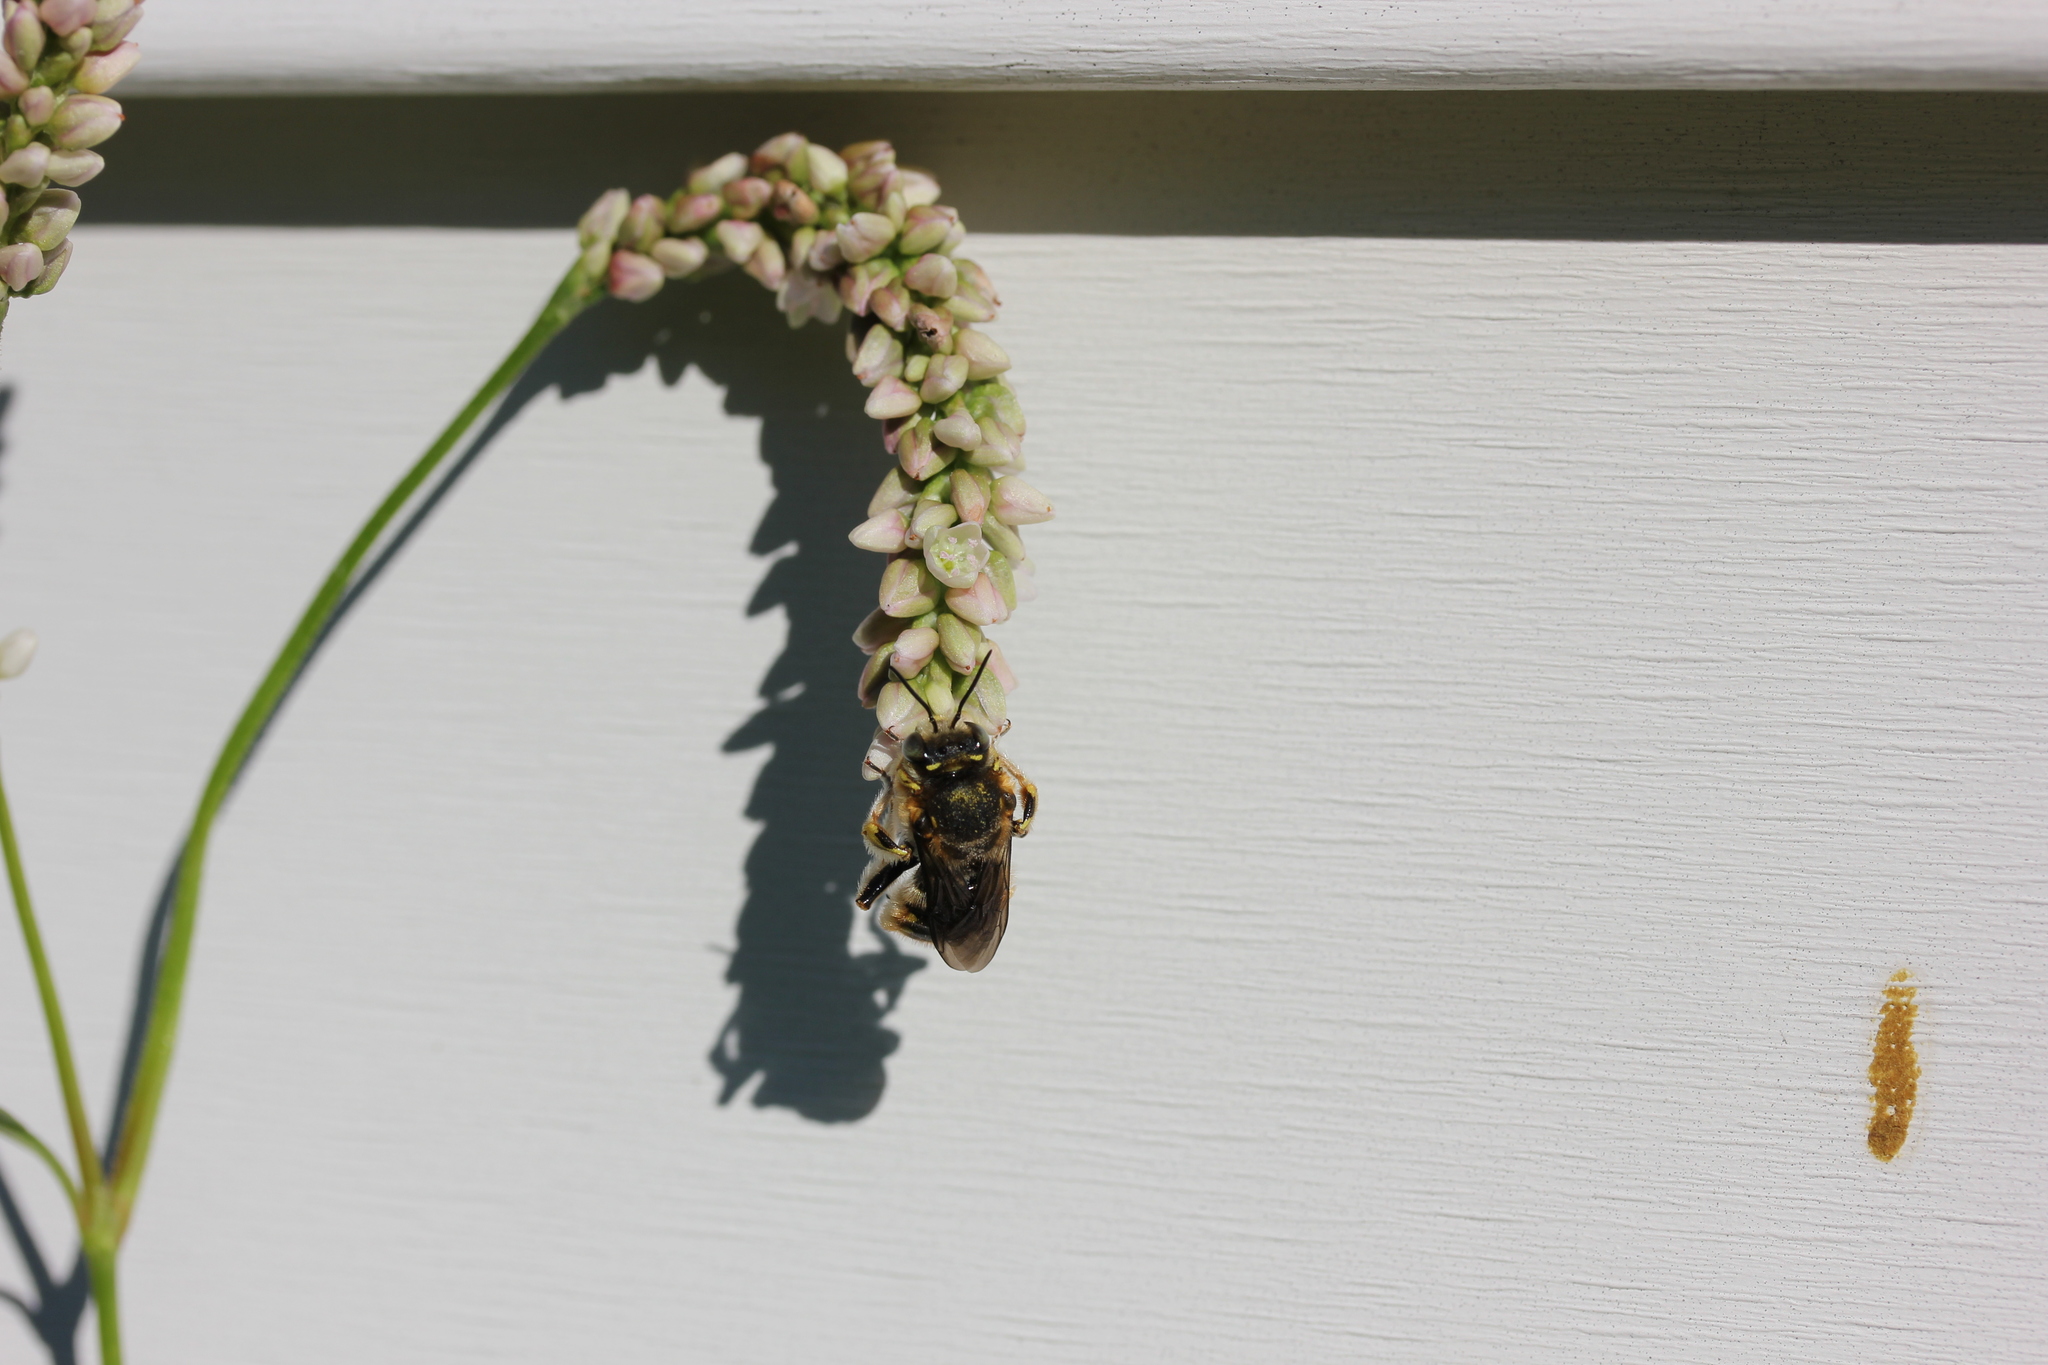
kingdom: Animalia
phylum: Arthropoda
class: Insecta
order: Hymenoptera
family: Megachilidae
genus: Anthidium
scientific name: Anthidium manicatum
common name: Wool carder bee
